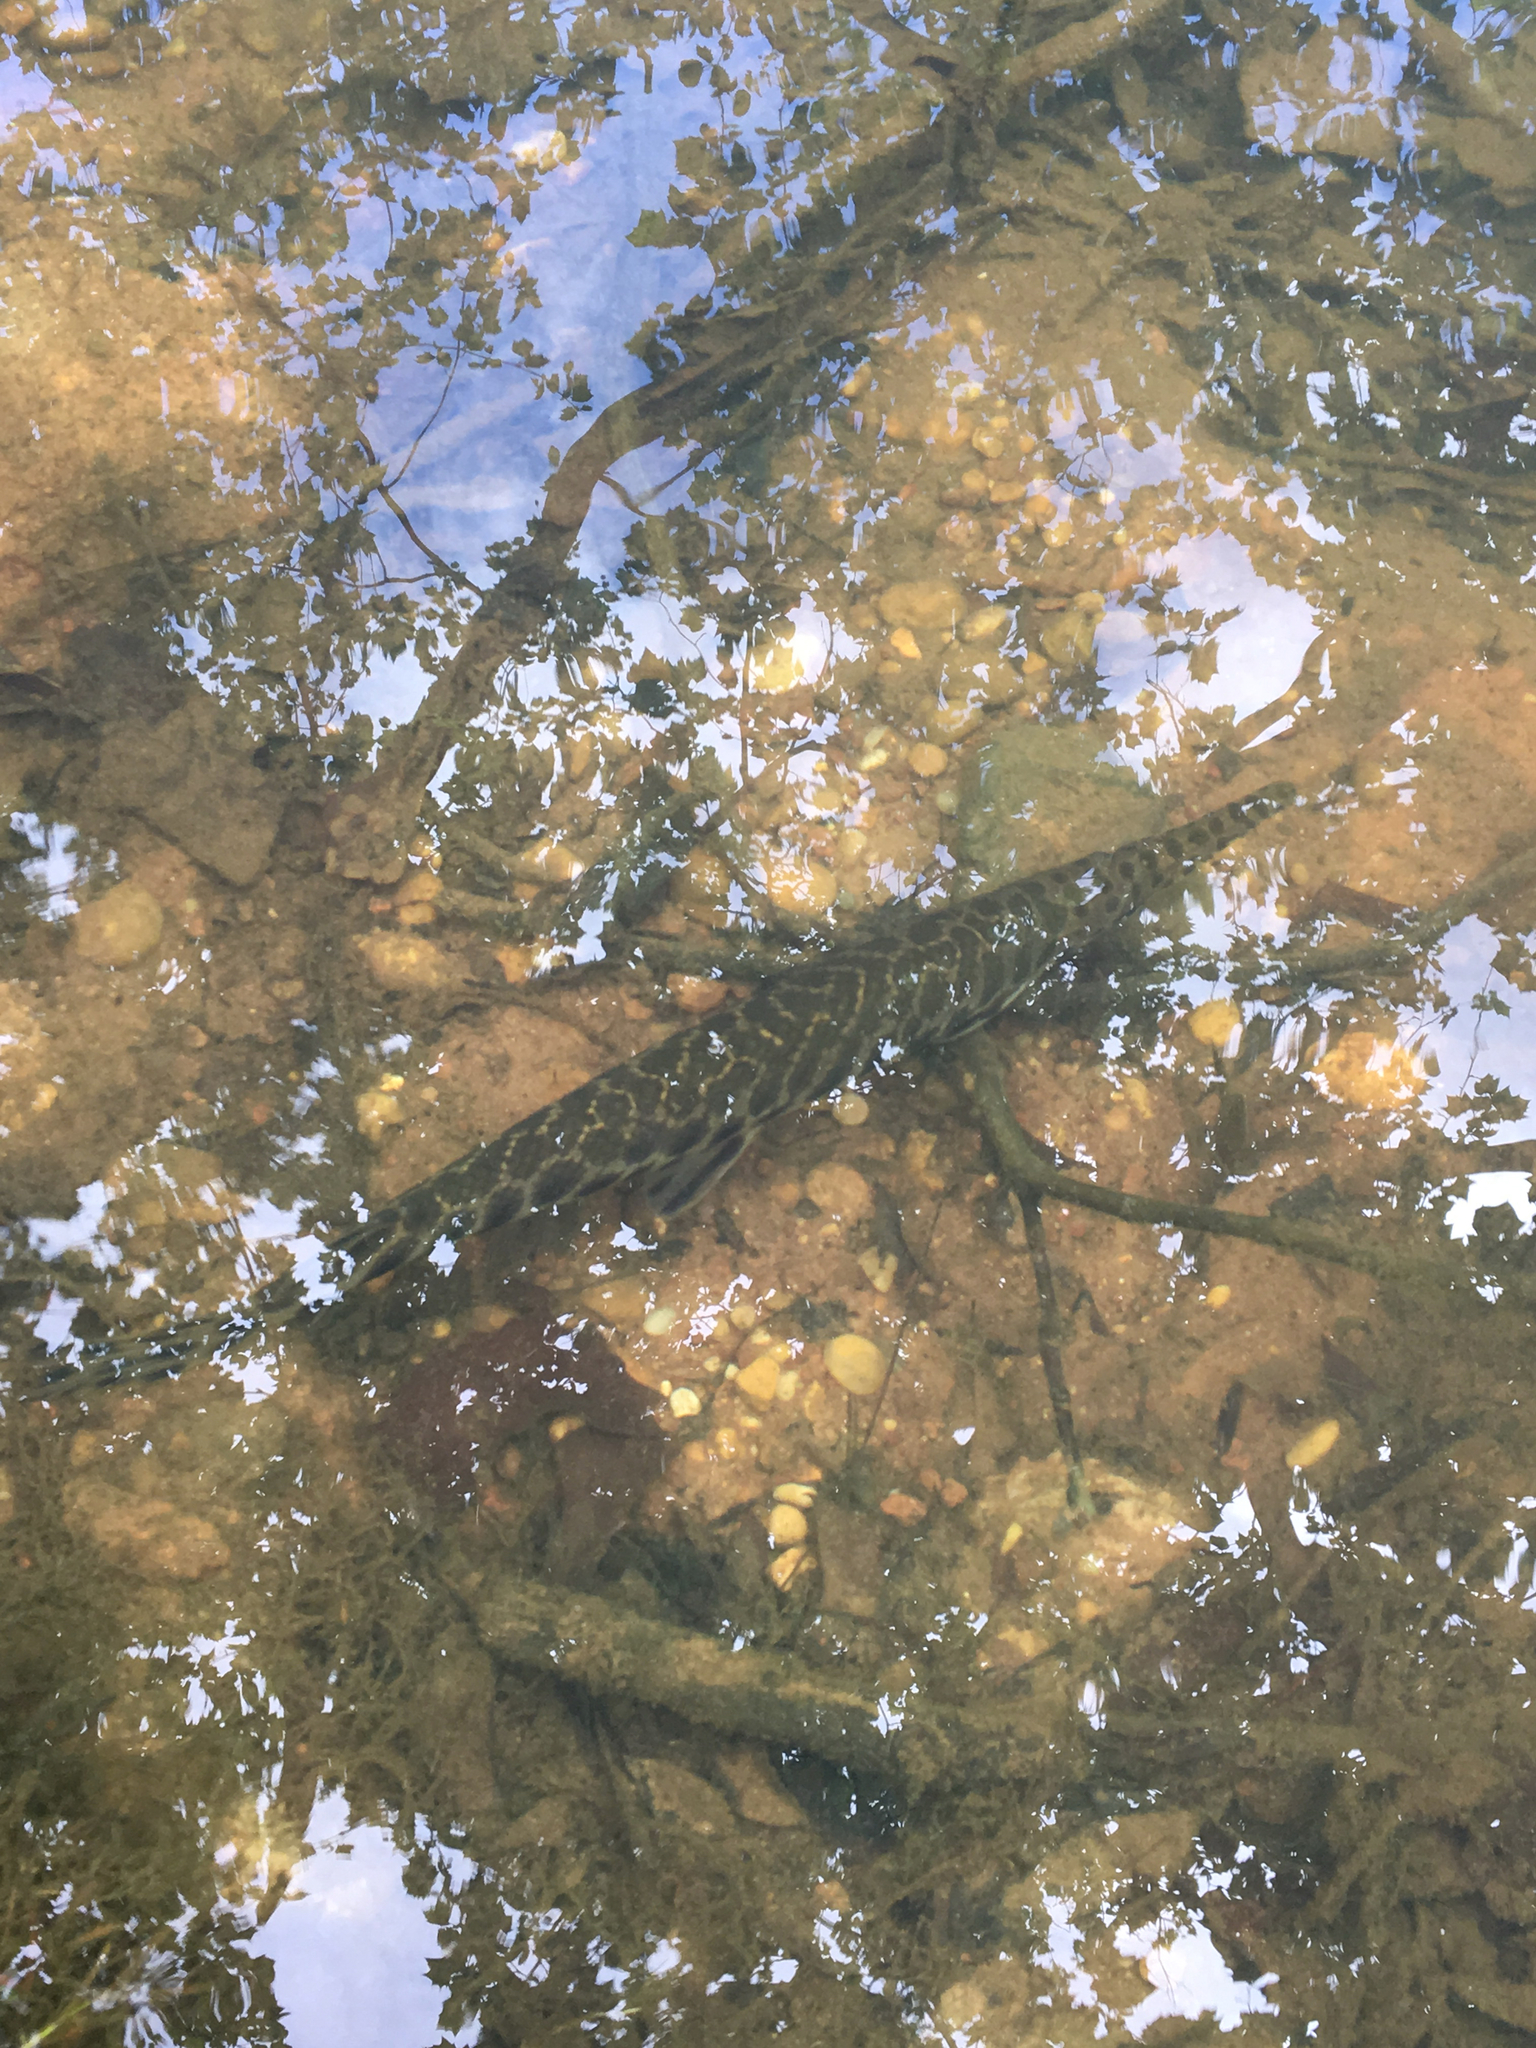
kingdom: Animalia
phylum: Chordata
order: Lepisosteiformes
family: Lepisosteidae
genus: Lepisosteus
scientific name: Lepisosteus oculatus
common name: Spotted gar
